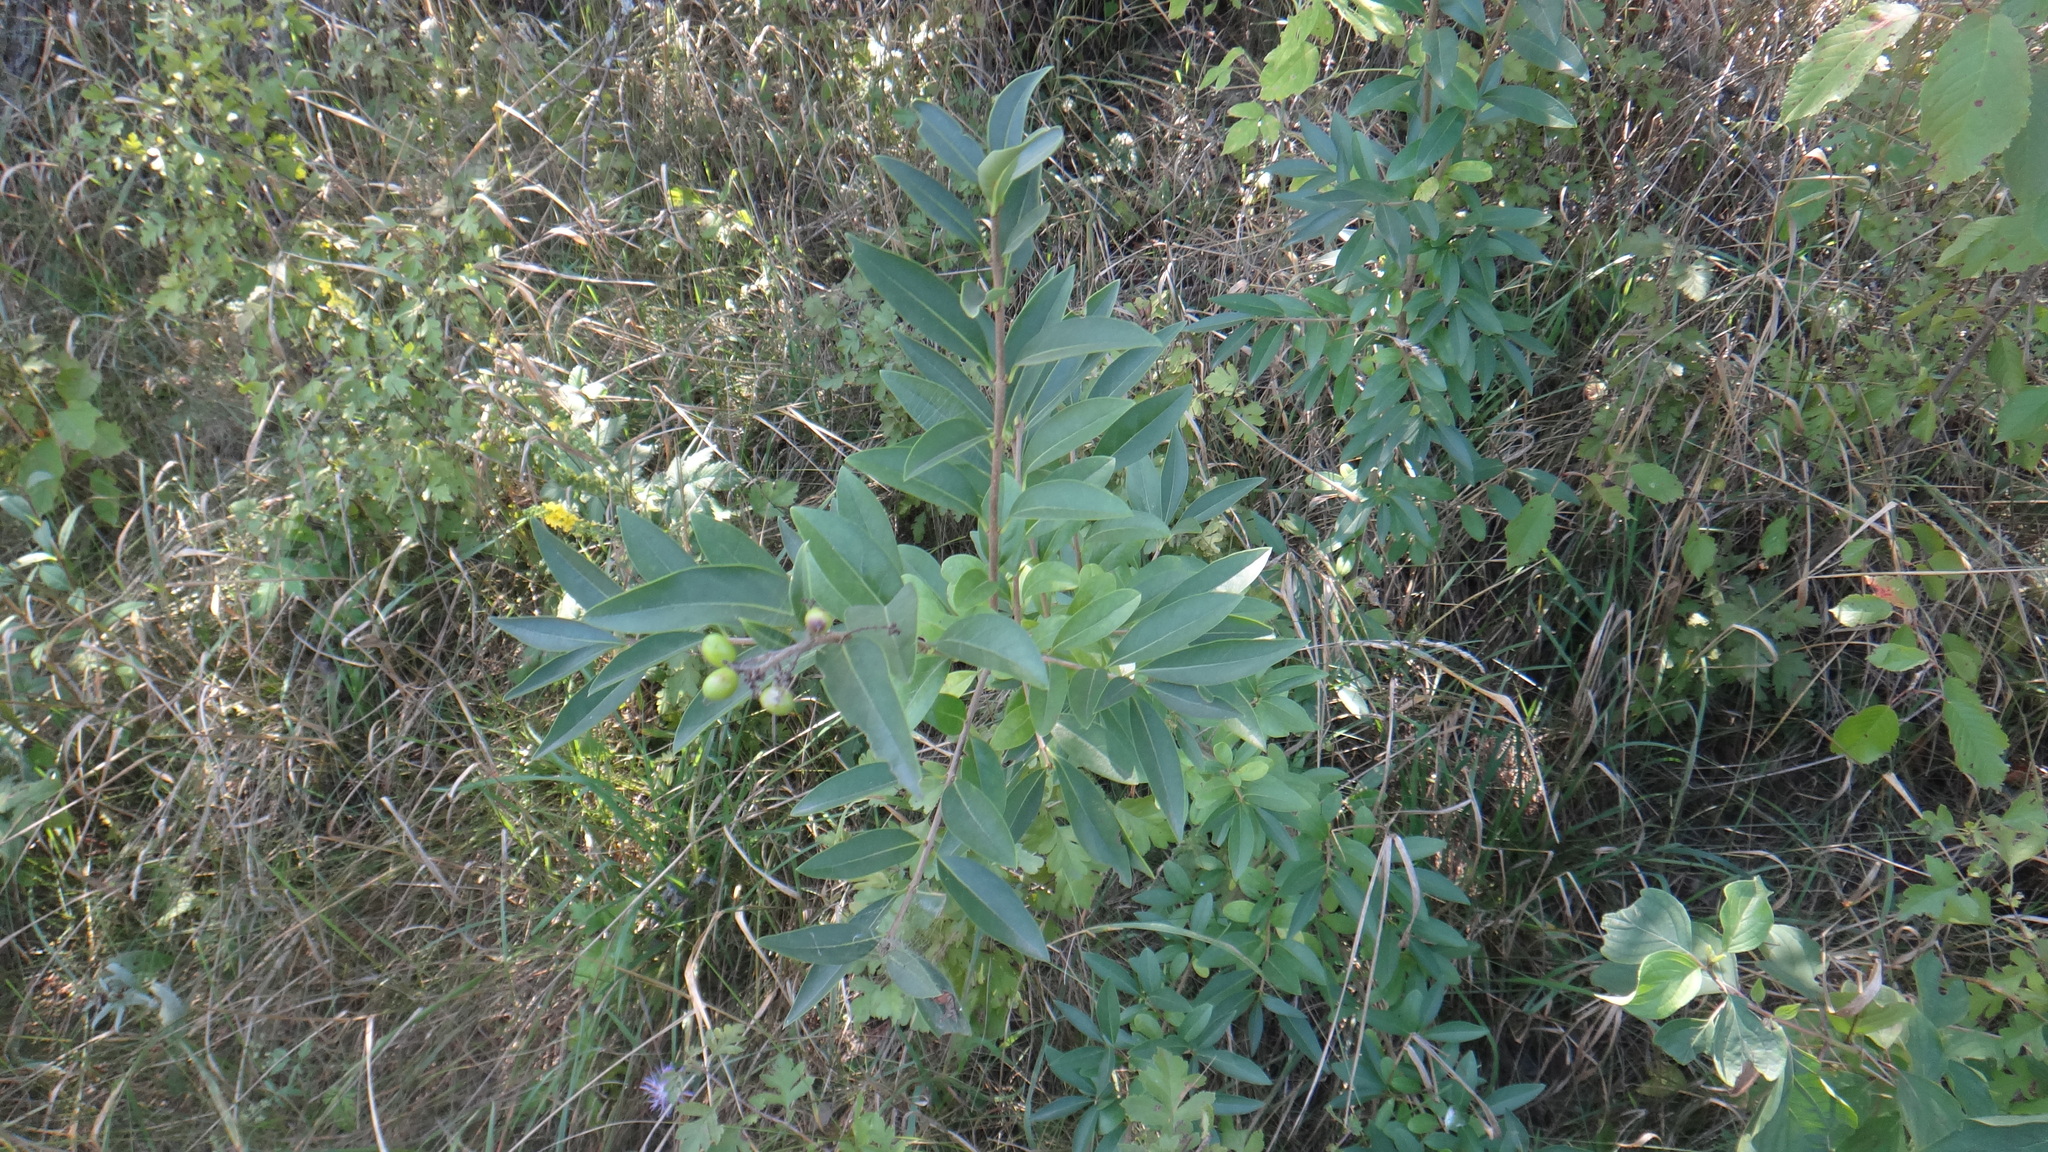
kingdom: Plantae
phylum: Tracheophyta
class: Magnoliopsida
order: Lamiales
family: Oleaceae
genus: Ligustrum
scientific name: Ligustrum vulgare
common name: Wild privet
